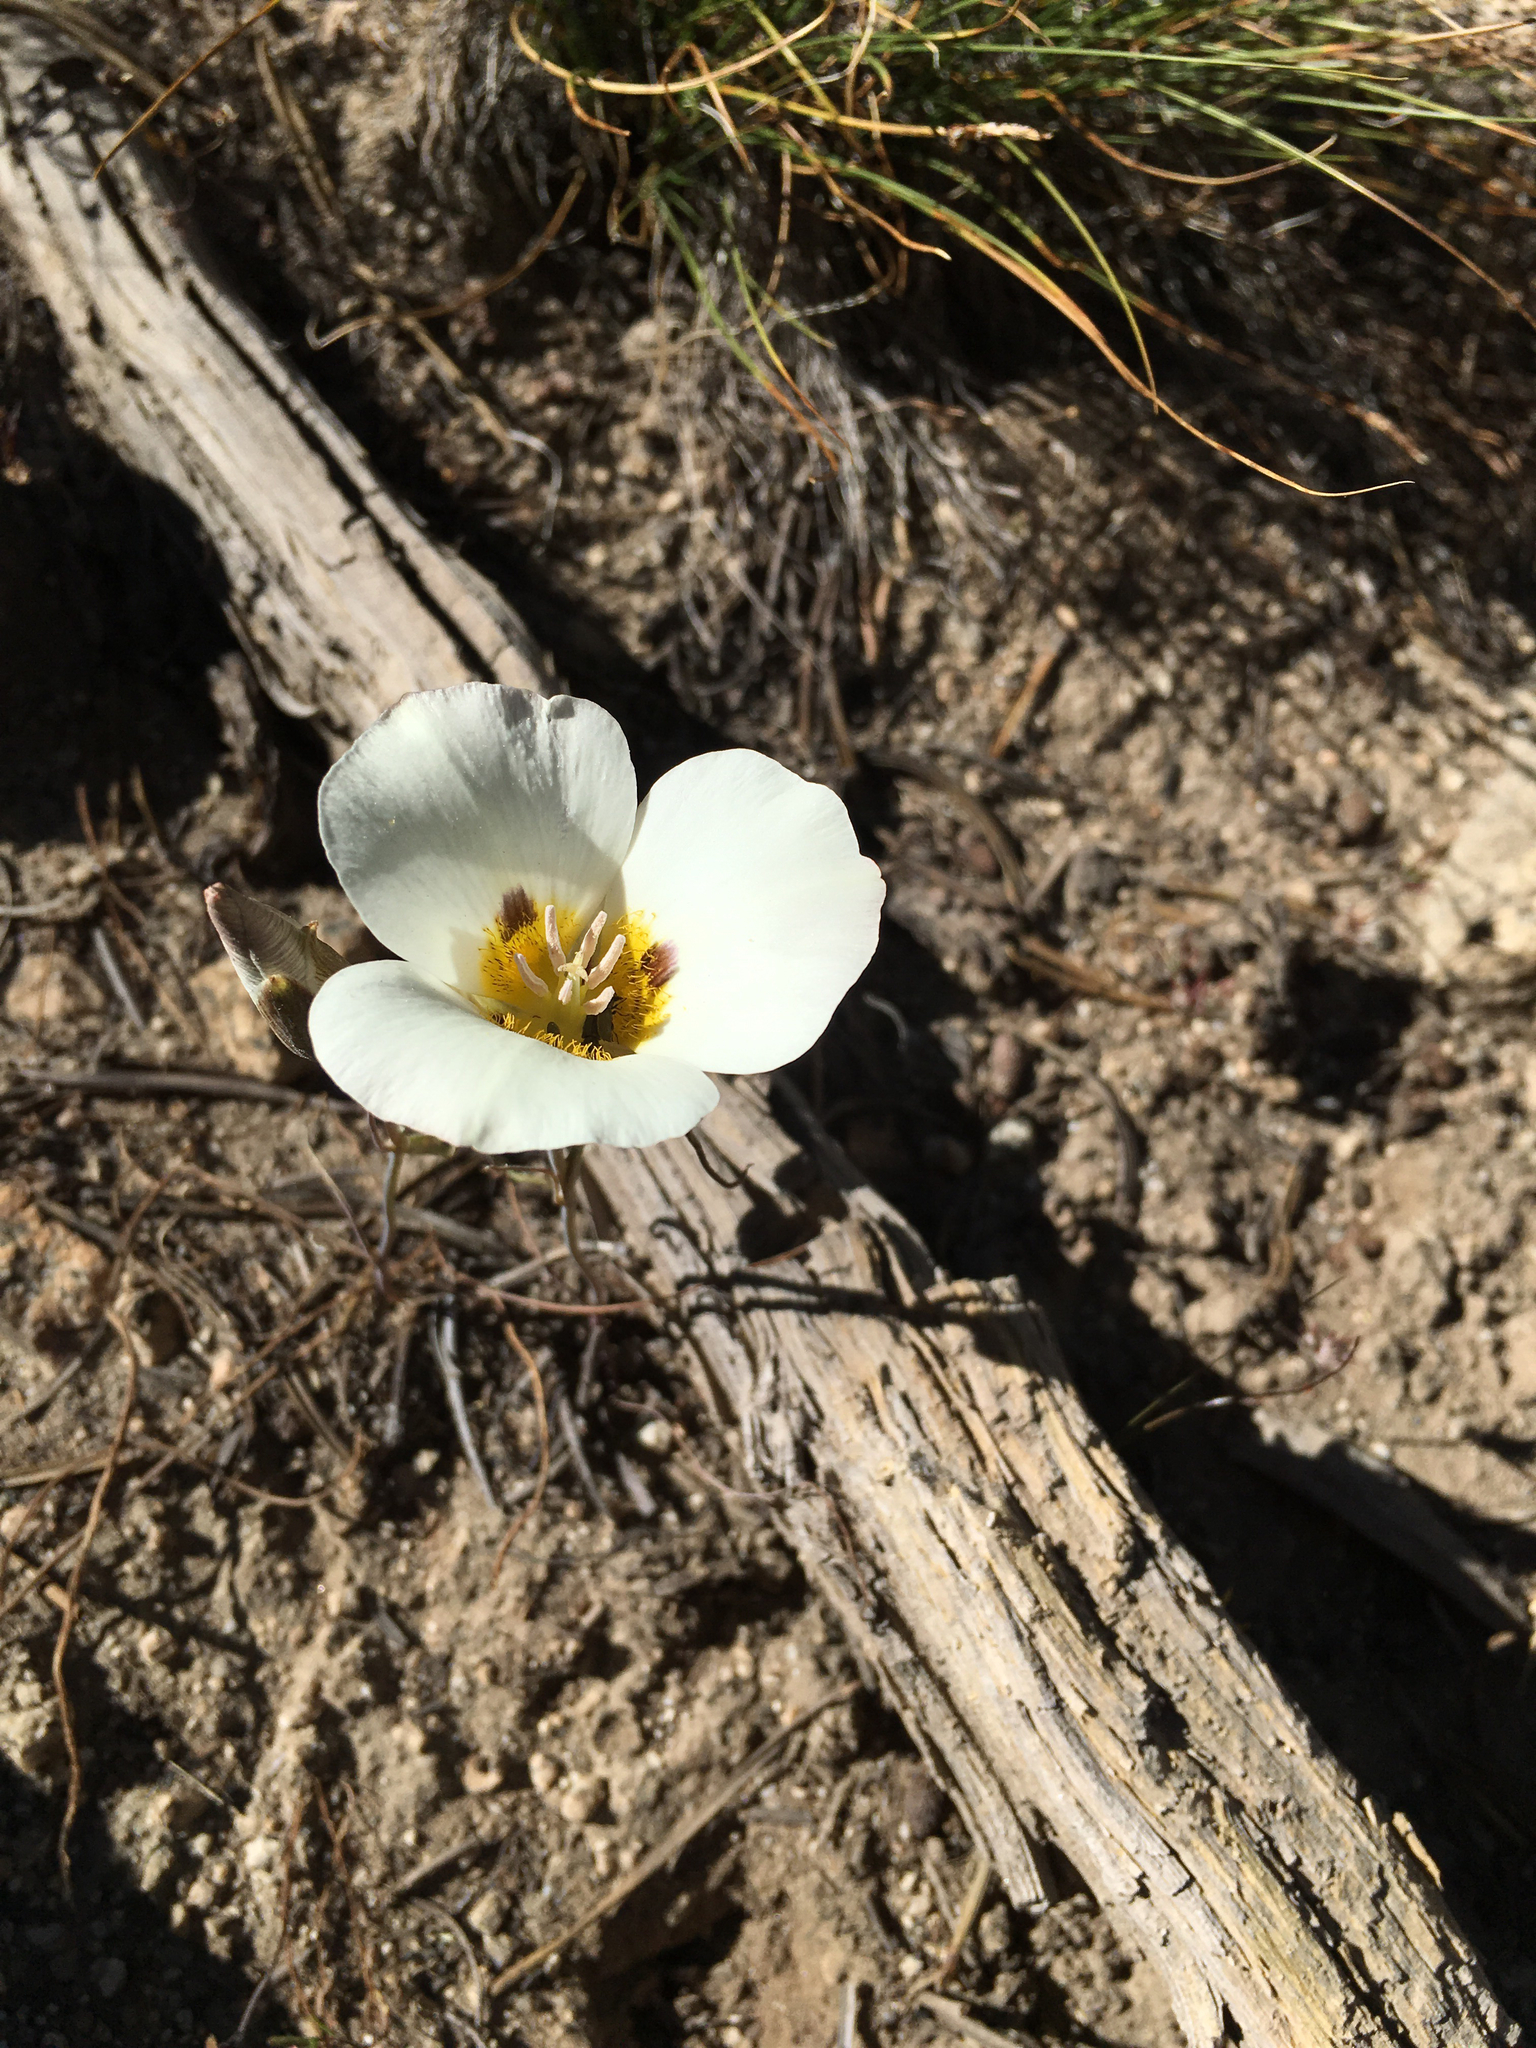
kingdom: Plantae
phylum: Tracheophyta
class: Liliopsida
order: Liliales
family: Liliaceae
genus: Calochortus
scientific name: Calochortus leichtlinii
